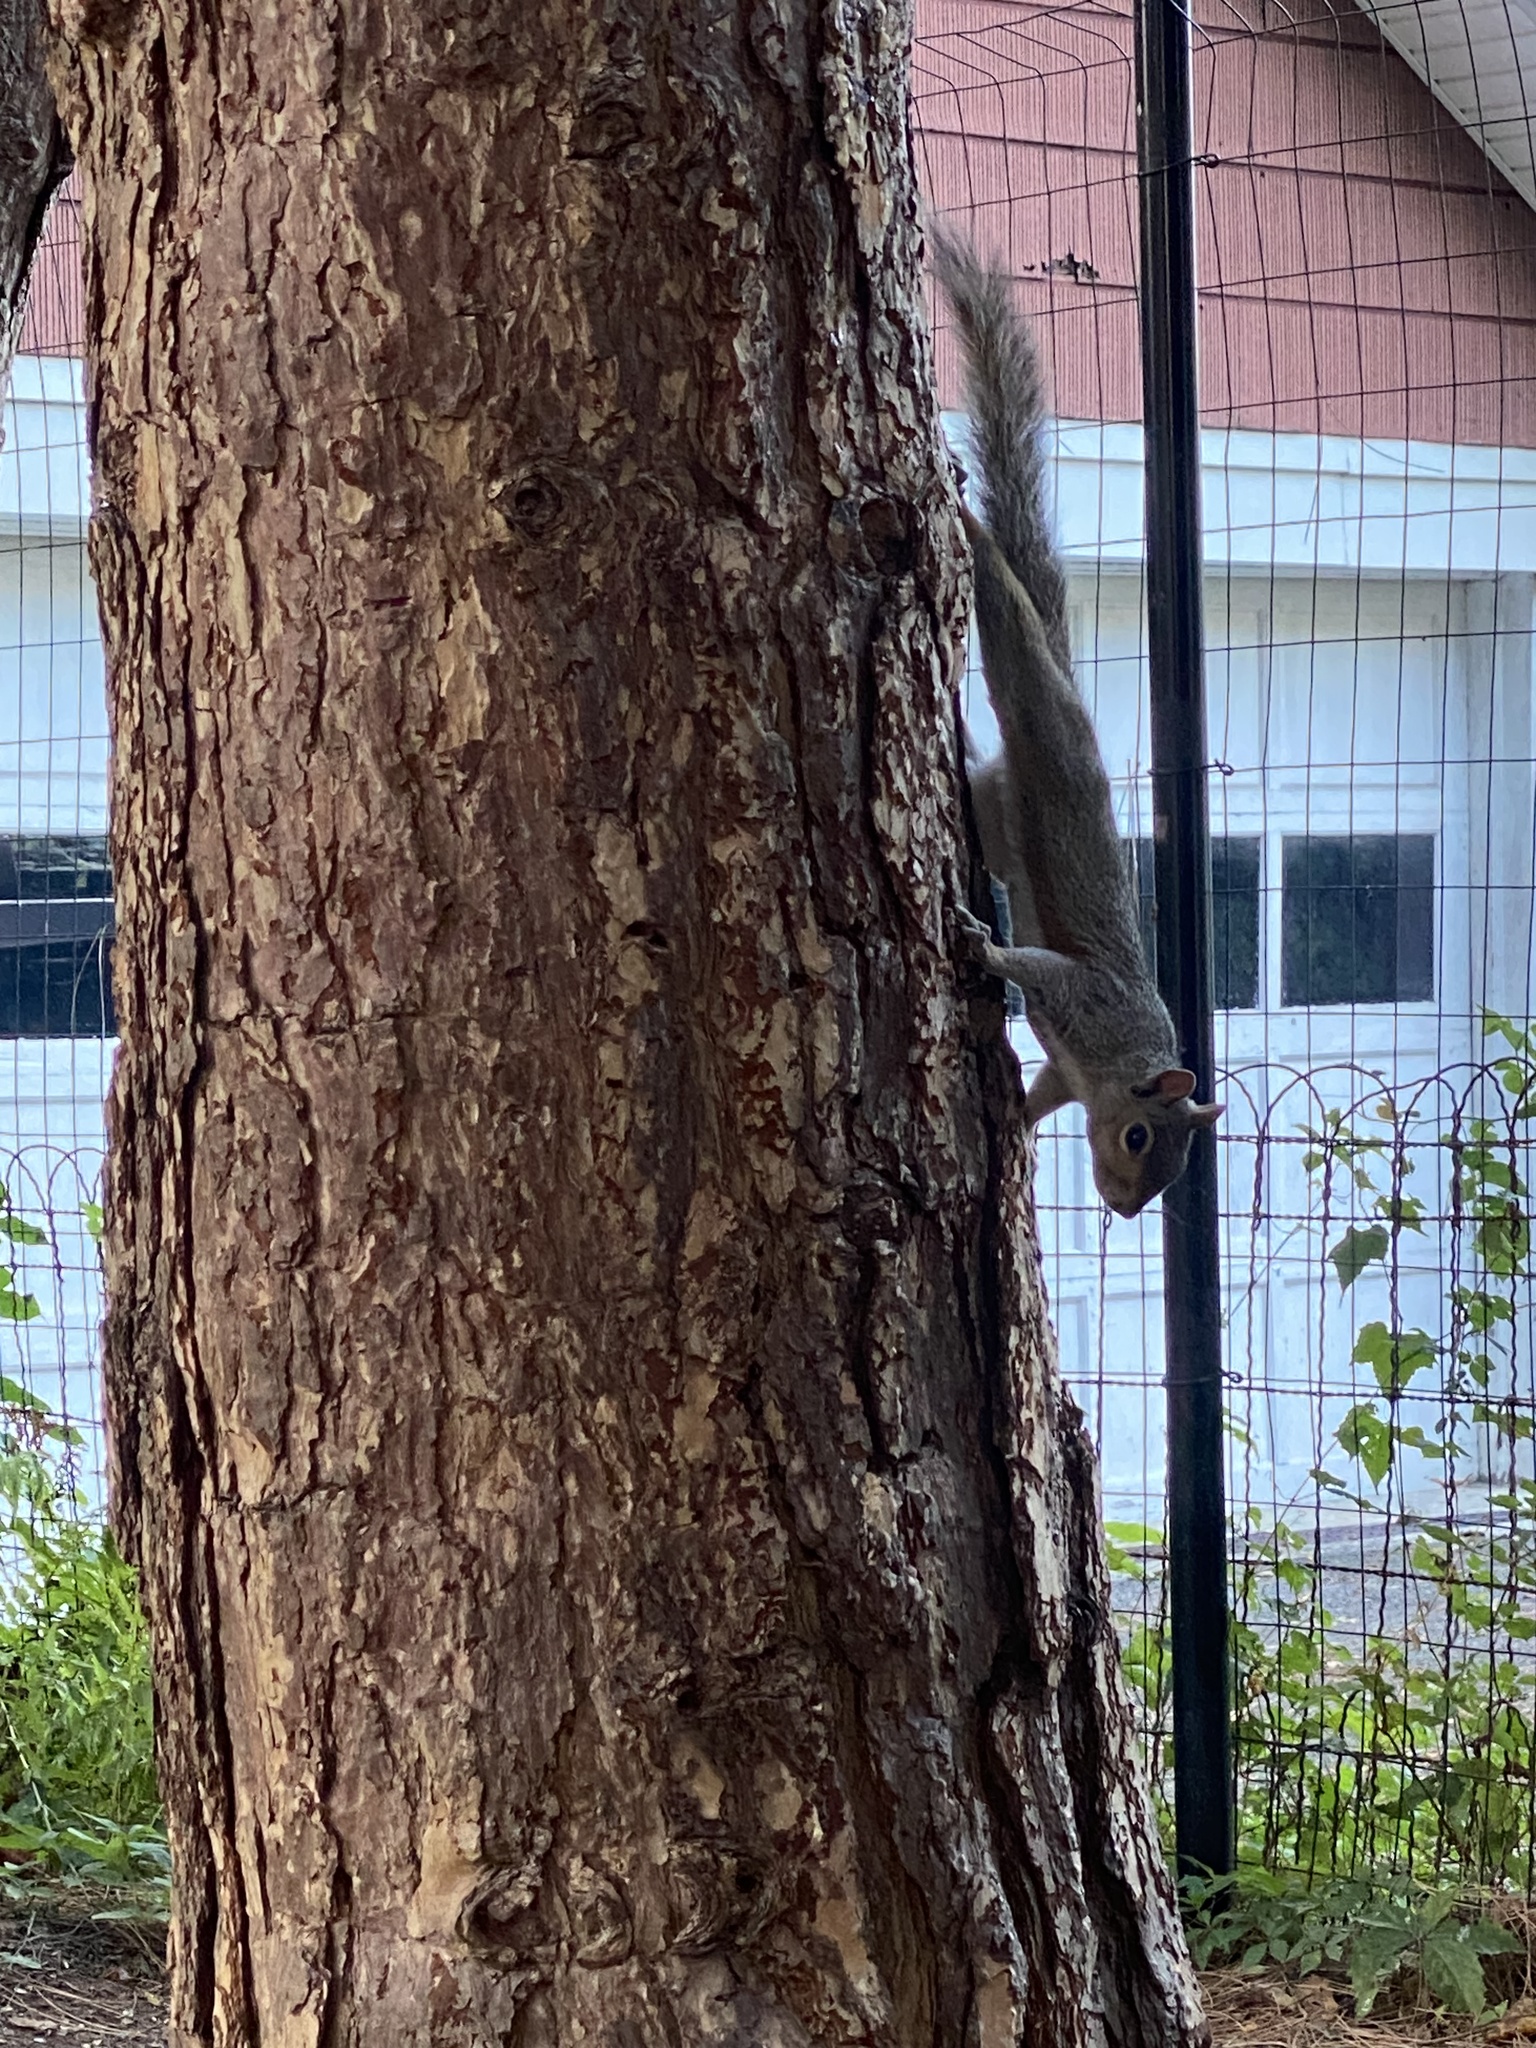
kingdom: Animalia
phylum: Chordata
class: Mammalia
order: Rodentia
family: Sciuridae
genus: Sciurus
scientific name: Sciurus carolinensis
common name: Eastern gray squirrel
